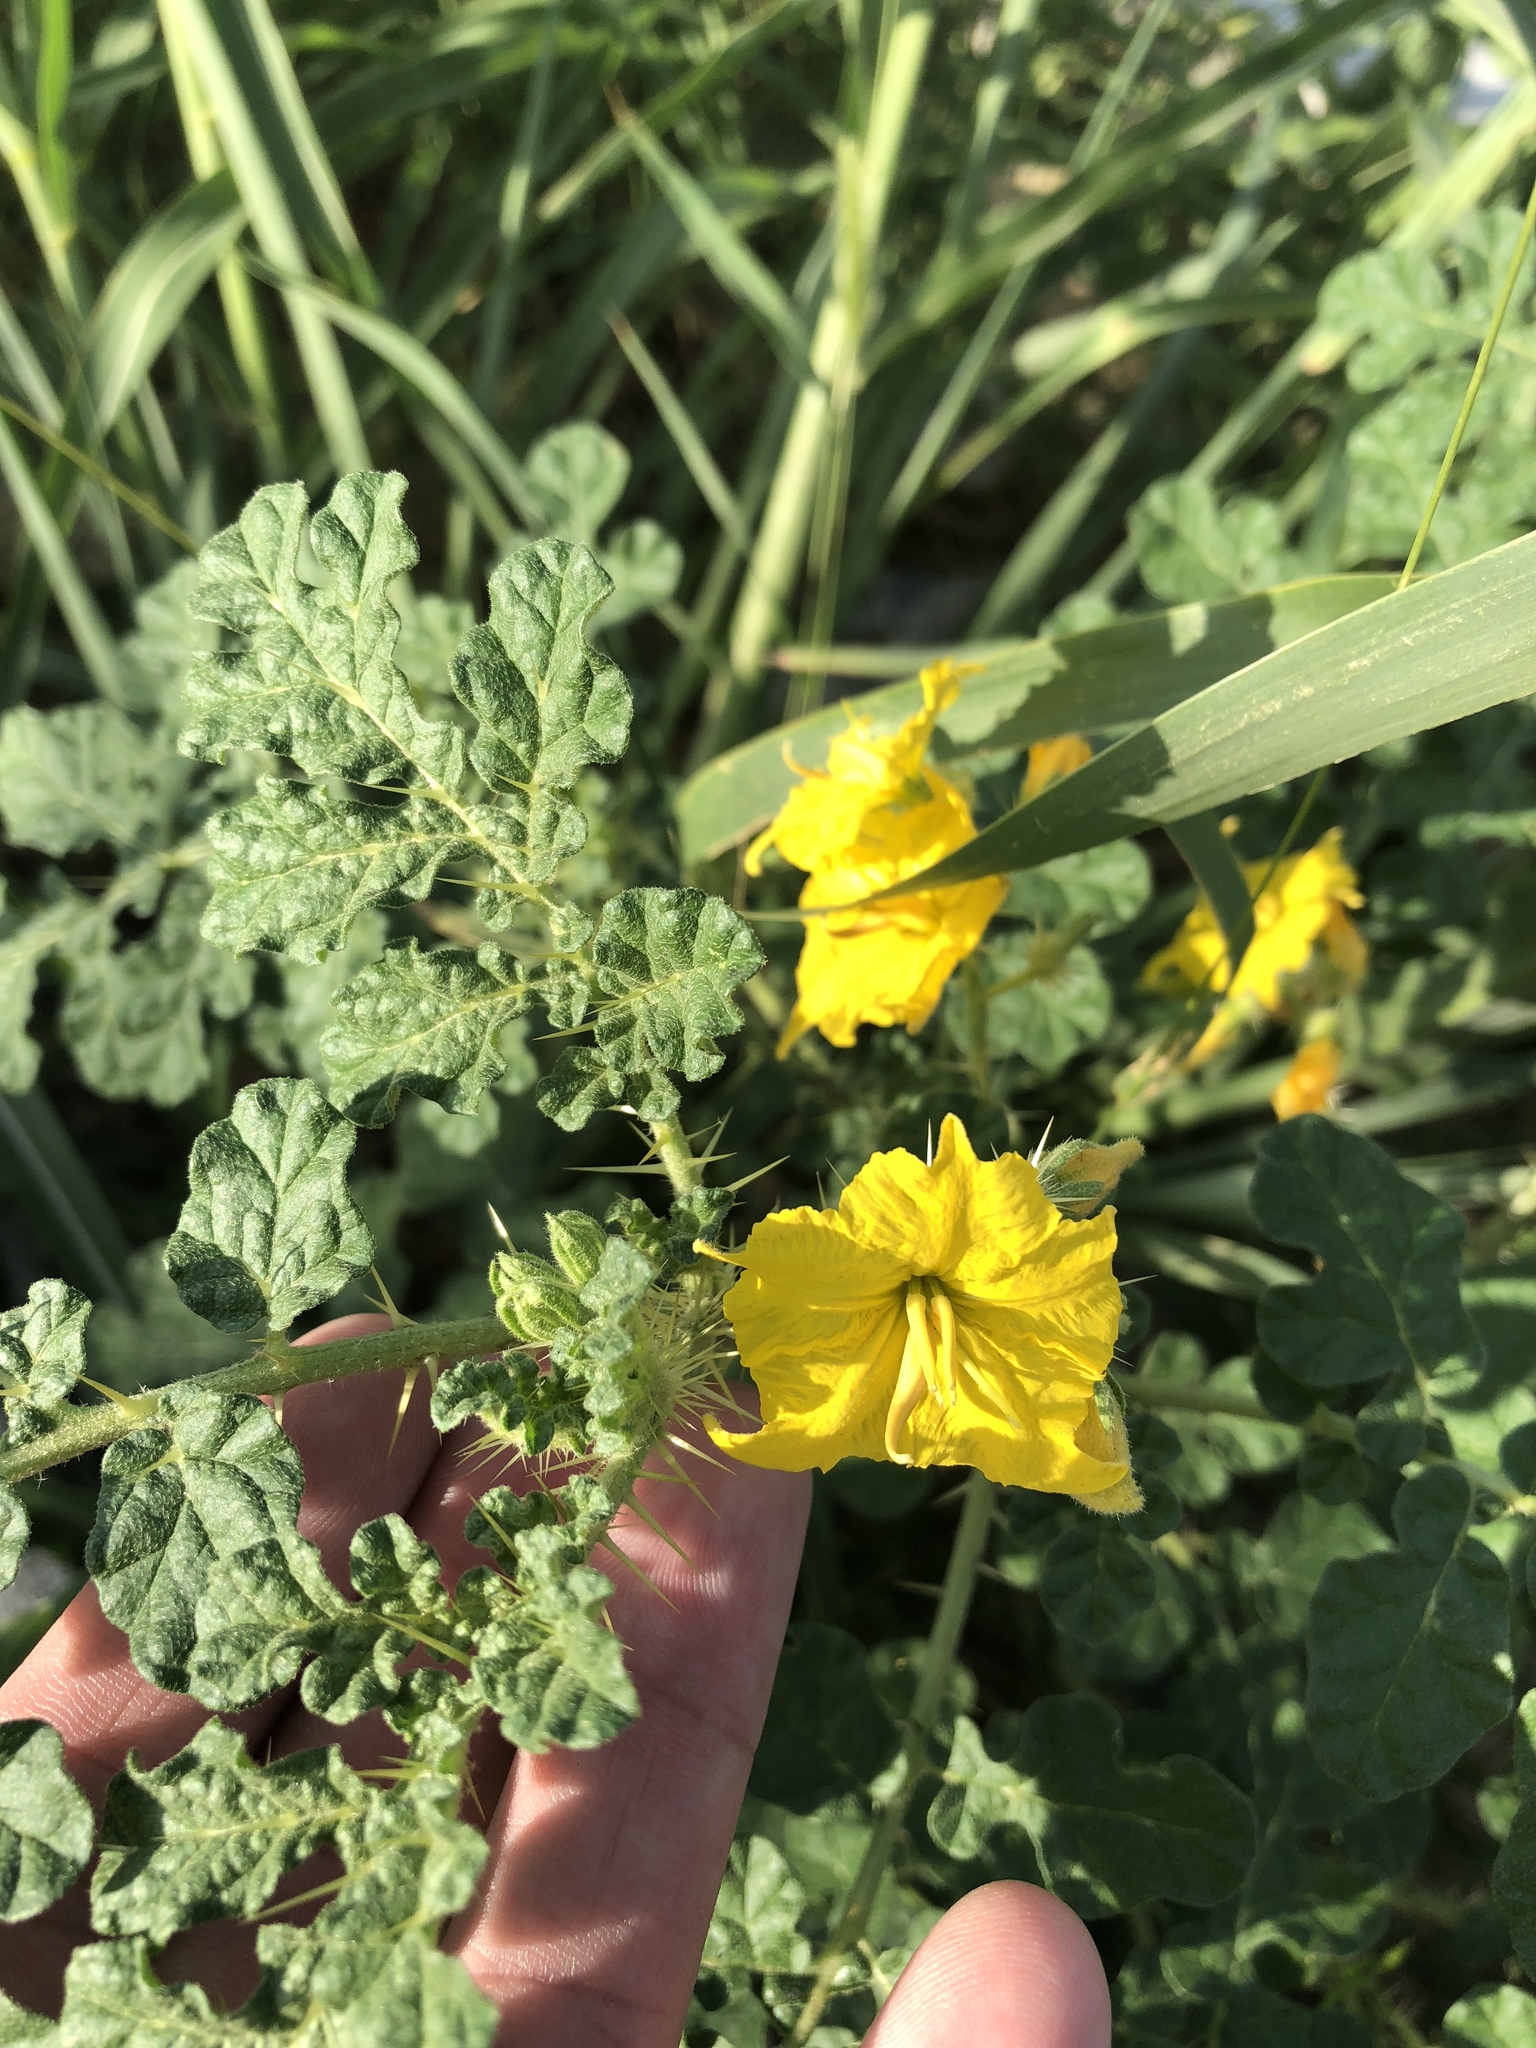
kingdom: Plantae
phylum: Tracheophyta
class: Magnoliopsida
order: Solanales
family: Solanaceae
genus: Solanum
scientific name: Solanum angustifolium
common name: Buffalobur nightshade
